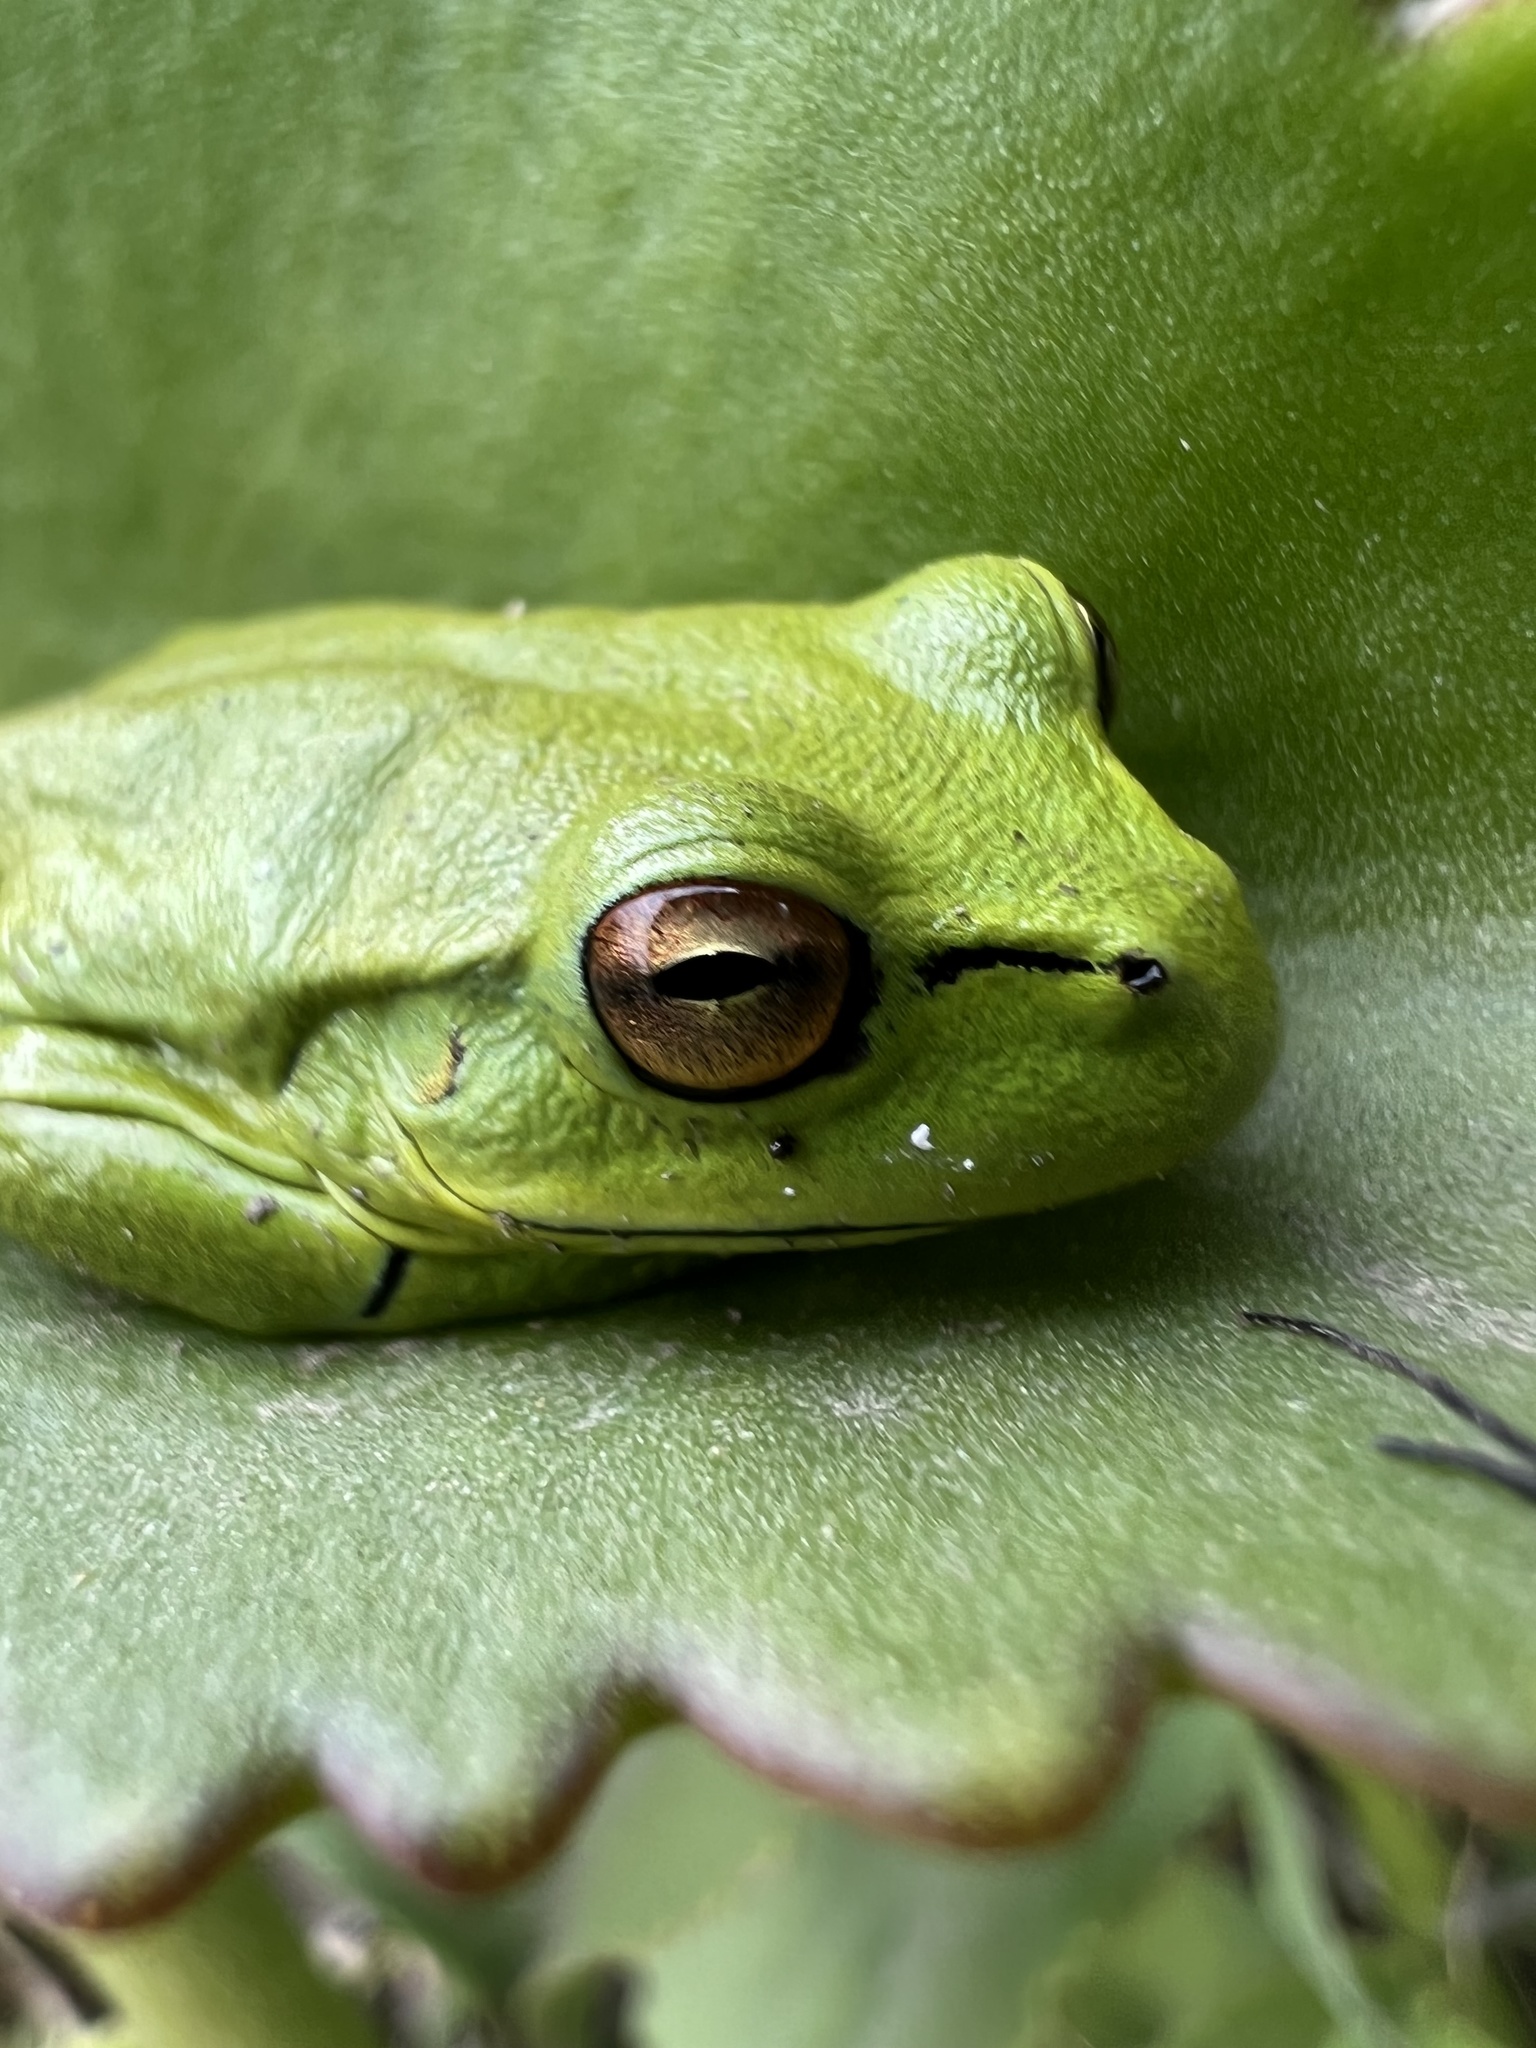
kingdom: Animalia
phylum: Chordata
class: Amphibia
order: Anura
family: Hylidae
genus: Dendropsophus
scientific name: Dendropsophus molitor
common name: Green dotted treefrog
